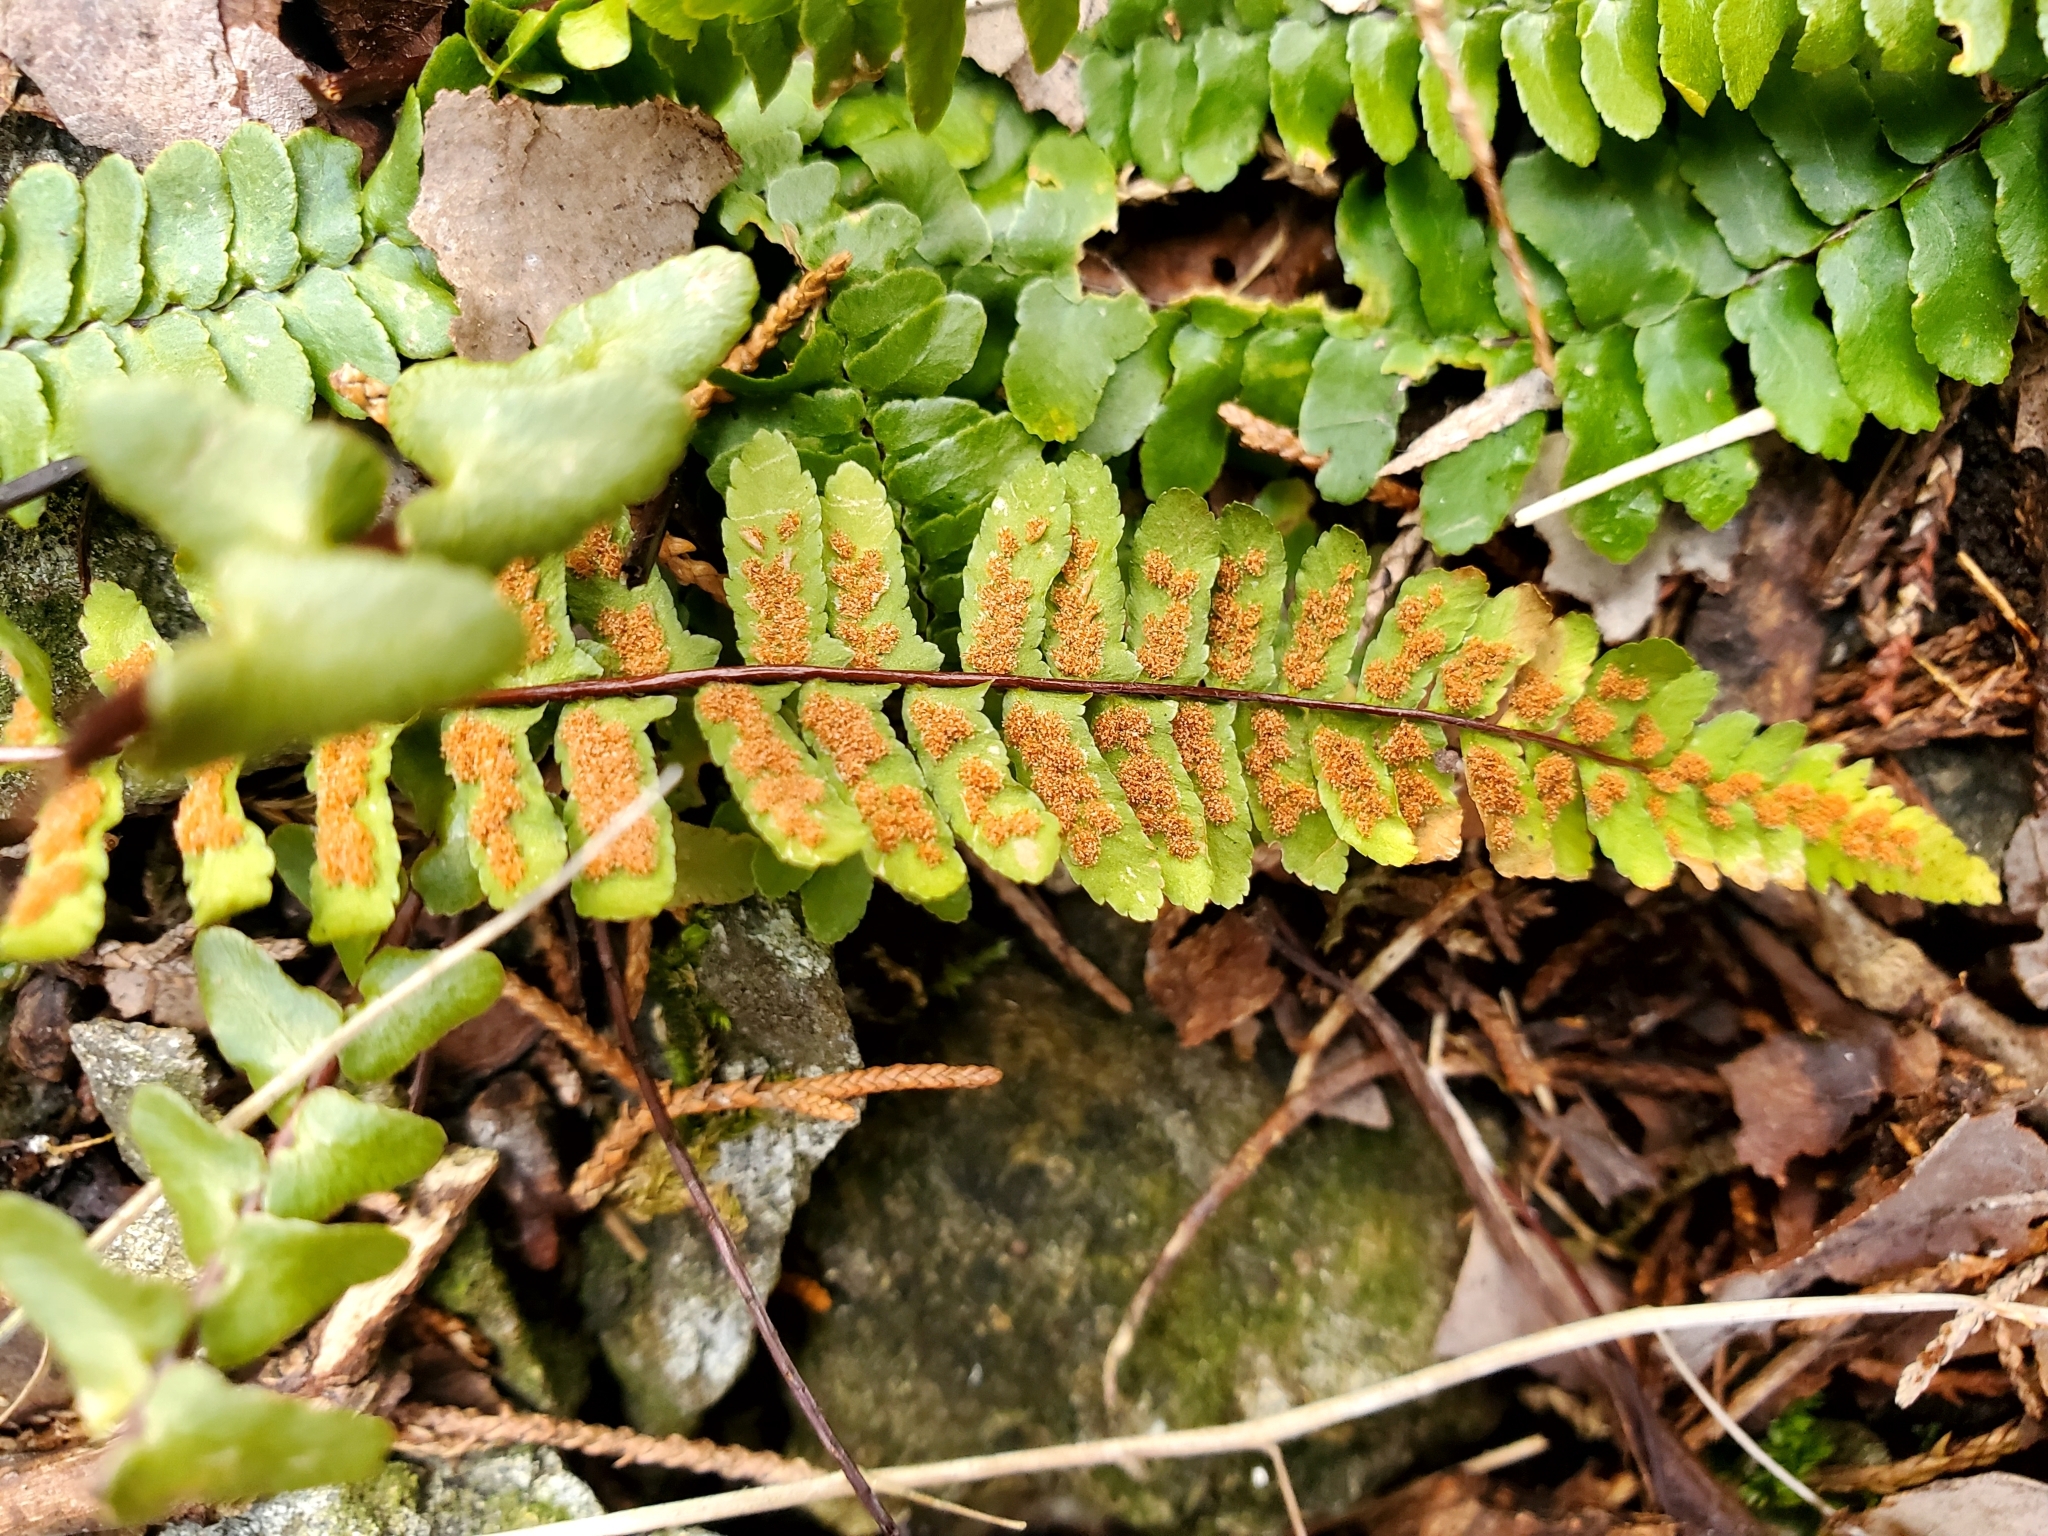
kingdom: Plantae
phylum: Tracheophyta
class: Polypodiopsida
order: Polypodiales
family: Aspleniaceae
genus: Asplenium
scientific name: Asplenium platyneuron
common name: Ebony spleenwort
